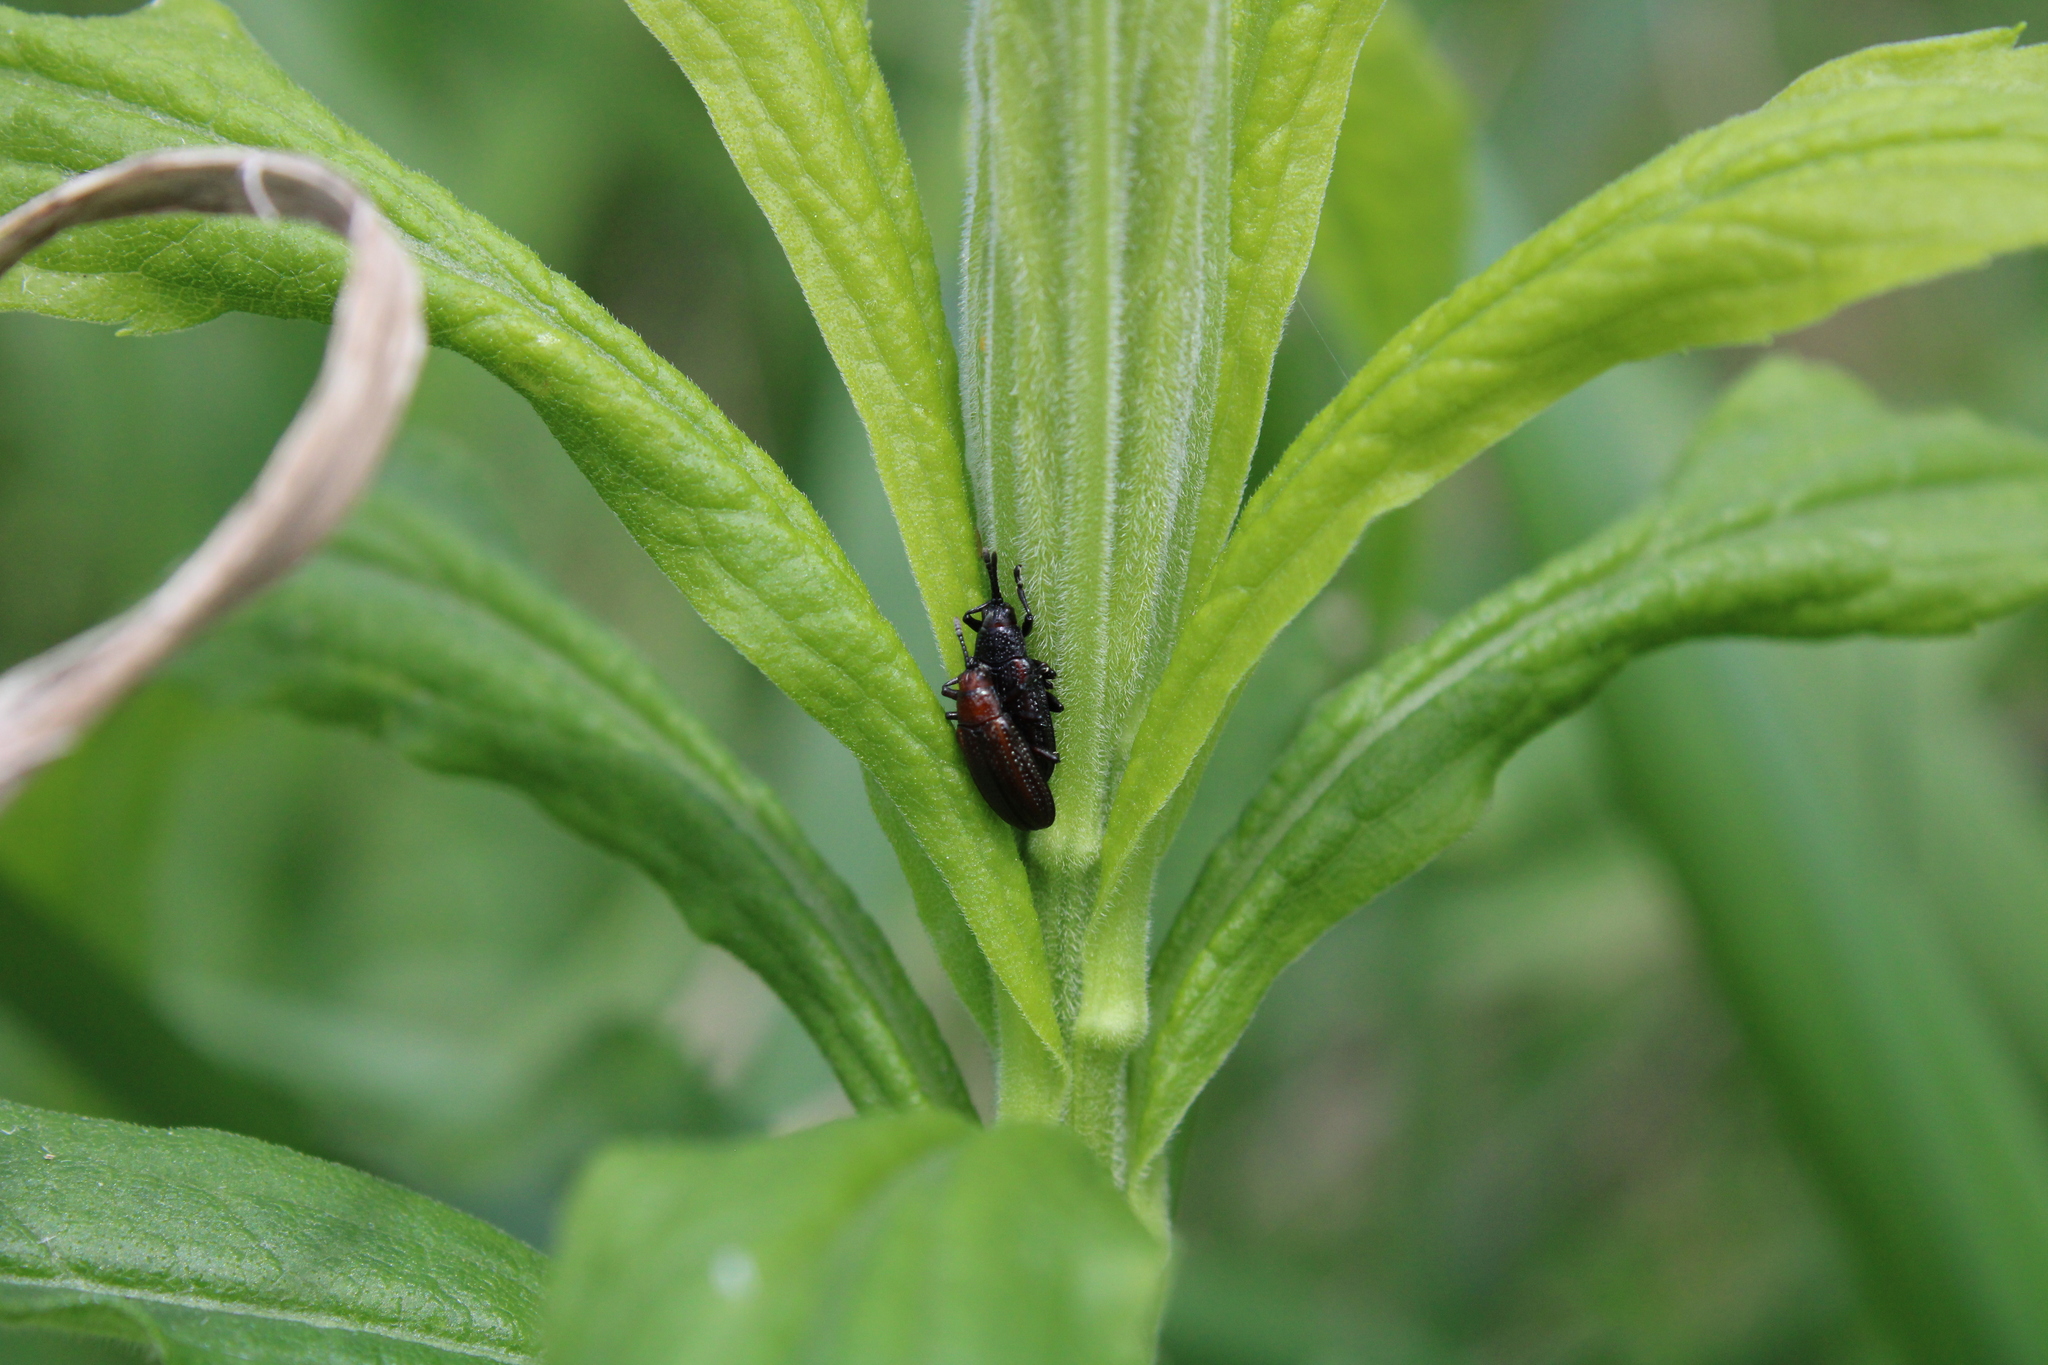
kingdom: Animalia
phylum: Arthropoda
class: Insecta
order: Coleoptera
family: Chrysomelidae
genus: Microrhopala
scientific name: Microrhopala vittata
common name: Goldenrod leaf miner beetle
